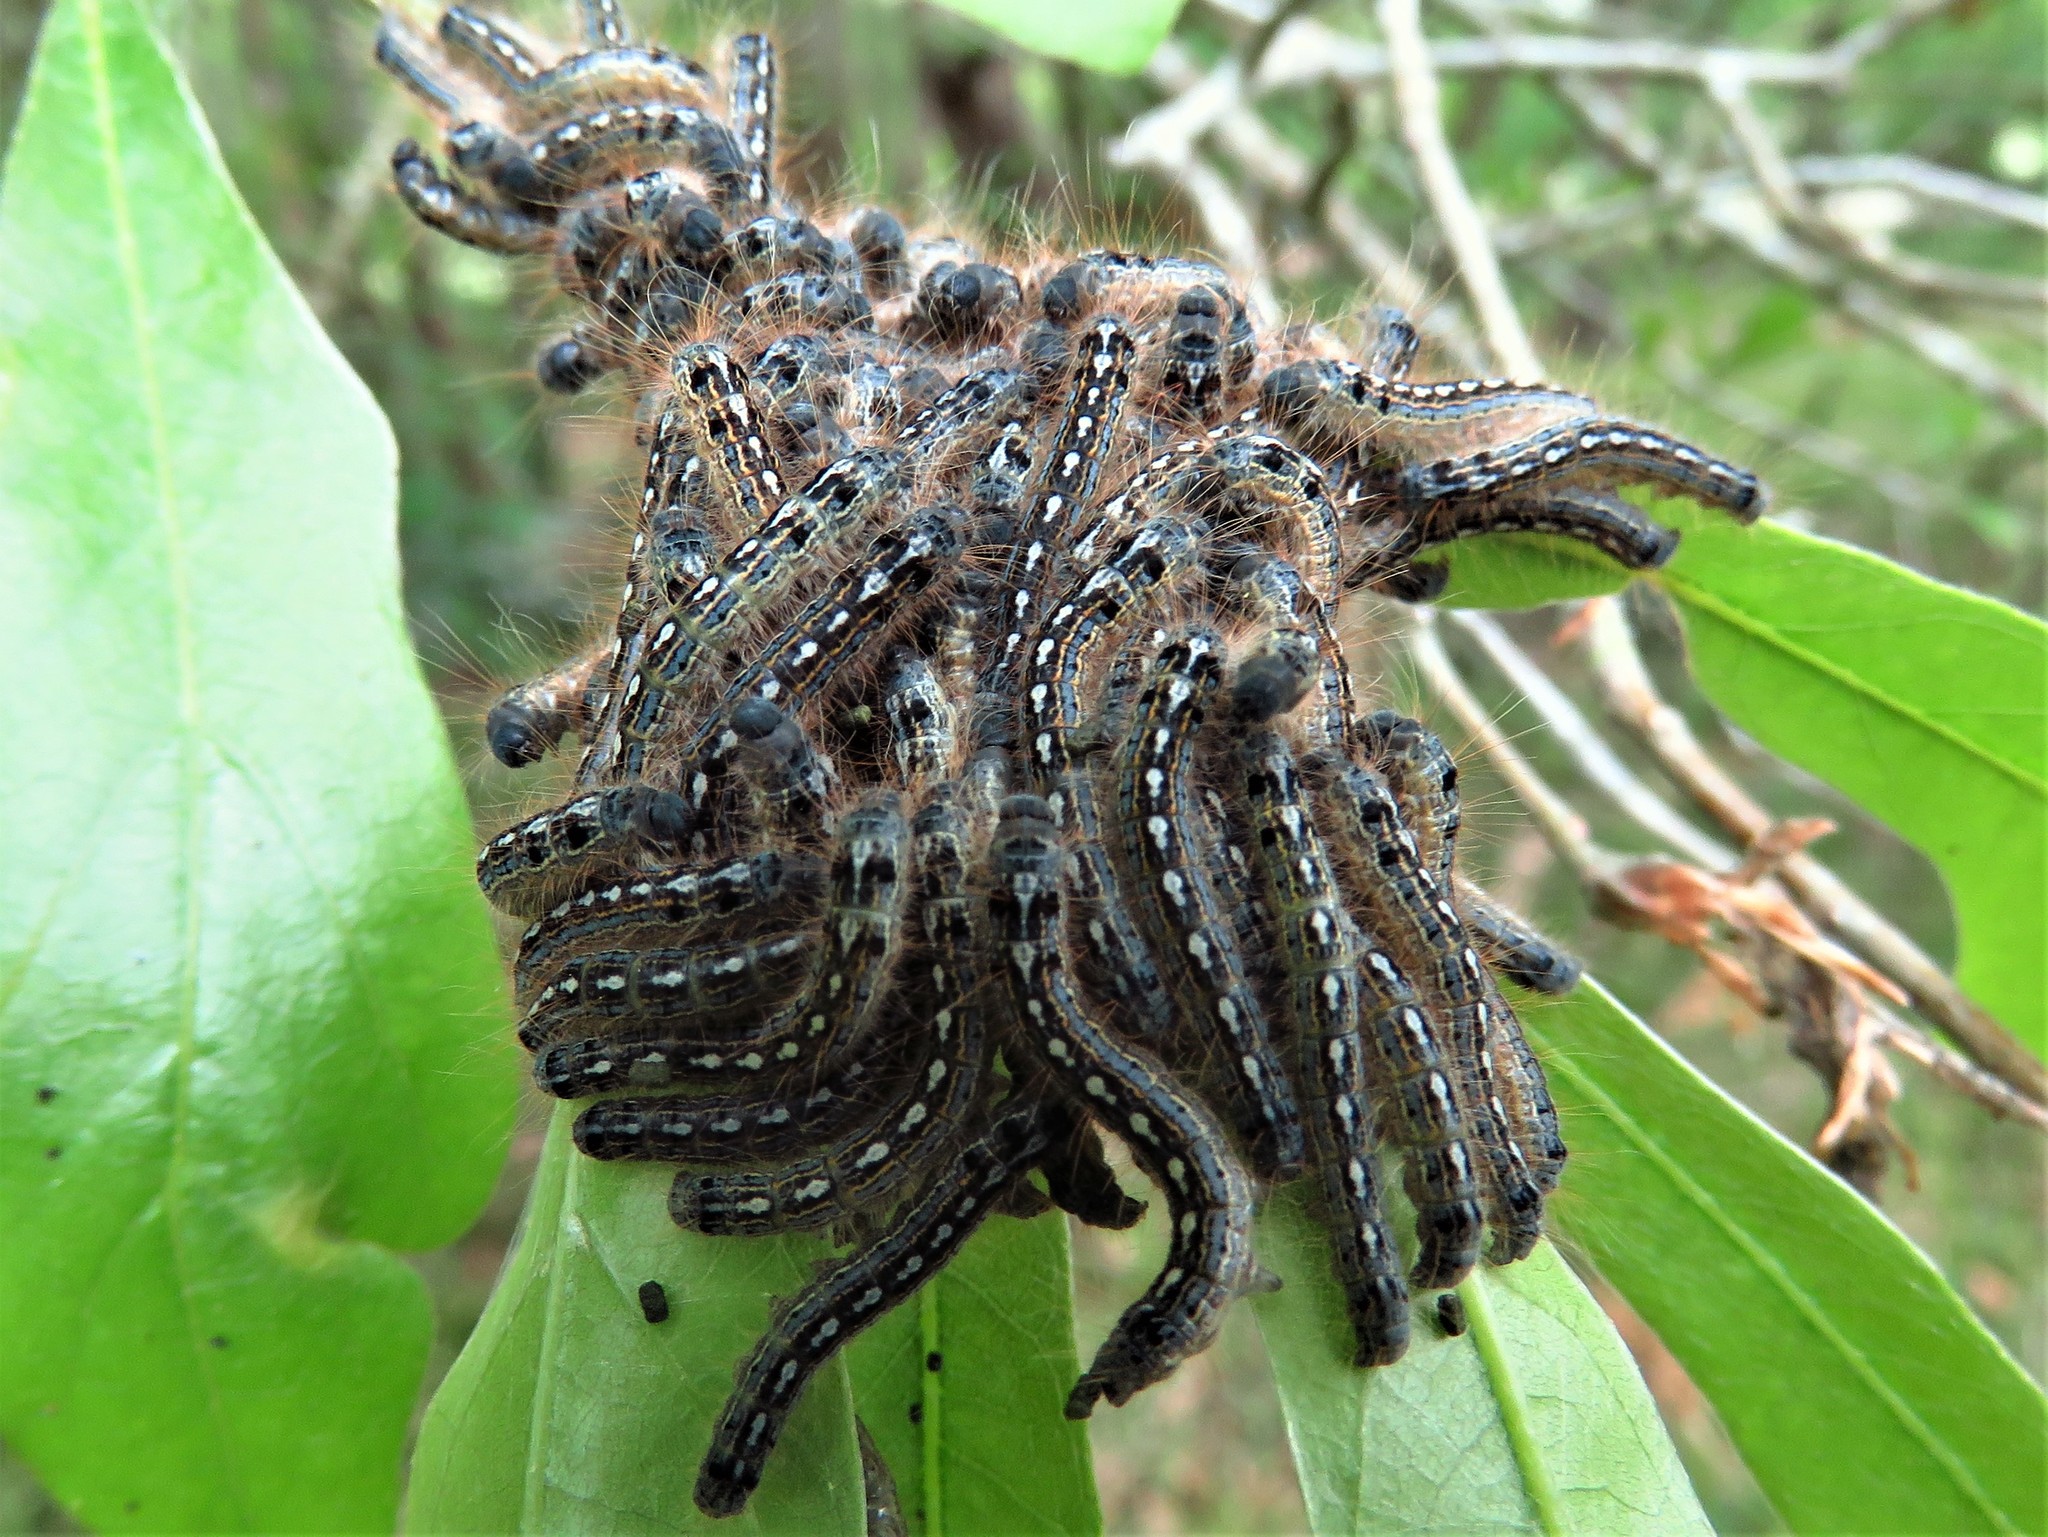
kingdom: Animalia
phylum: Arthropoda
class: Insecta
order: Lepidoptera
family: Lasiocampidae
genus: Malacosoma
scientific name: Malacosoma disstria
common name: Forest tent caterpillar
